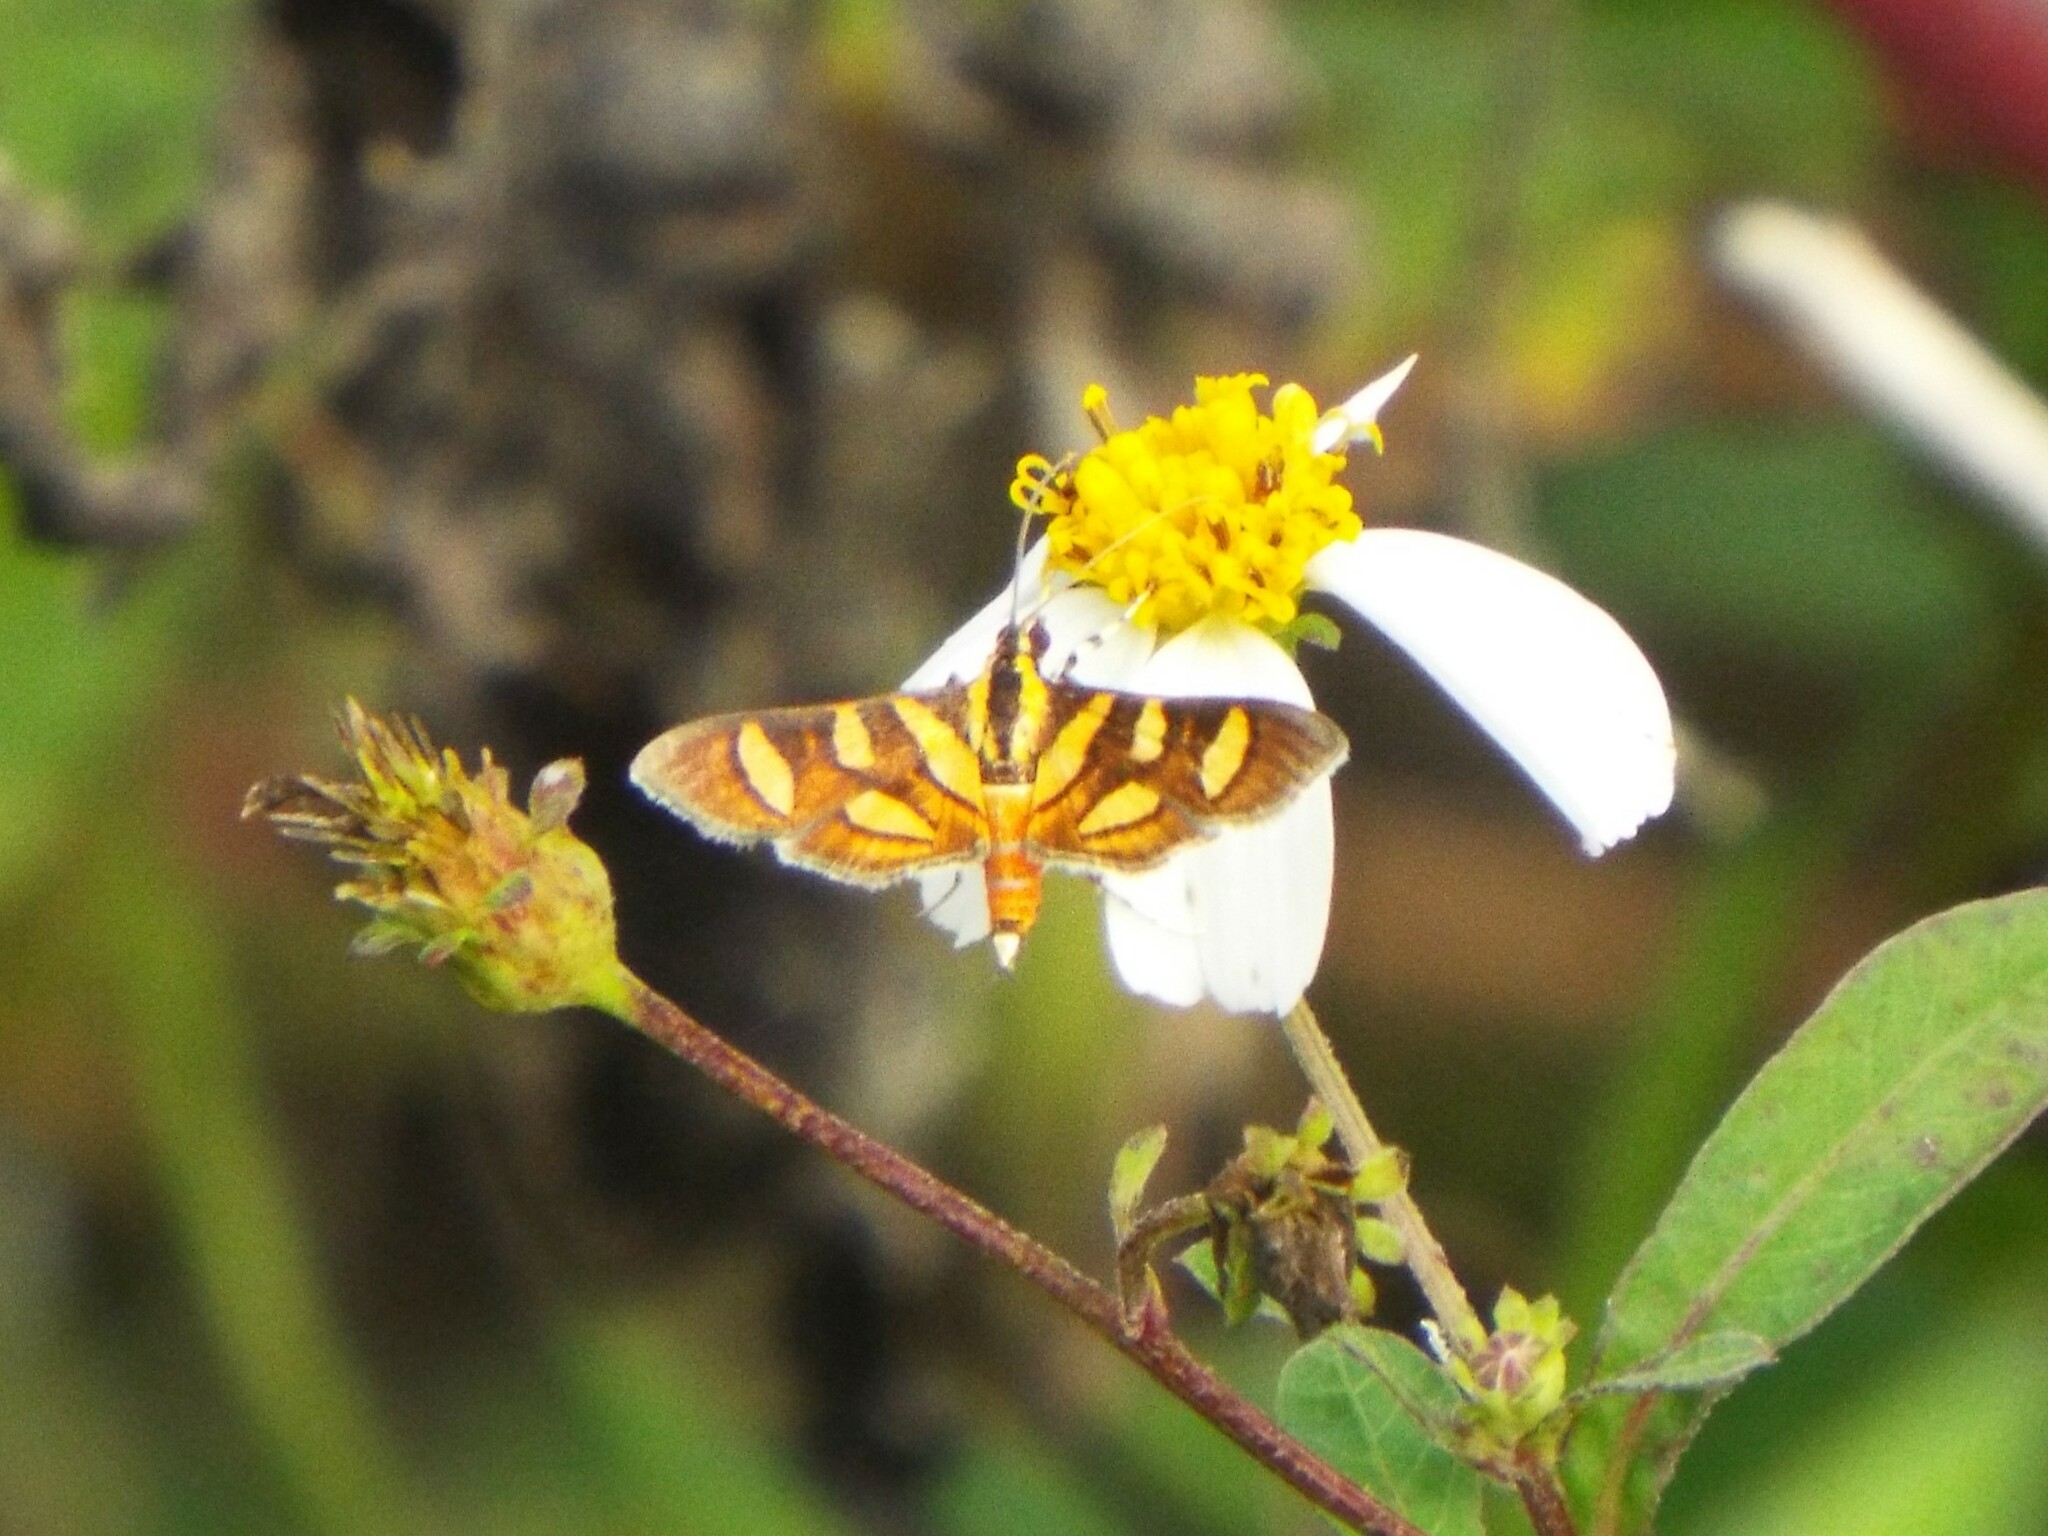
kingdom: Animalia
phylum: Arthropoda
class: Insecta
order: Lepidoptera
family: Crambidae
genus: Syngamia
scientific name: Syngamia florella
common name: Orange-spotted flower moth
